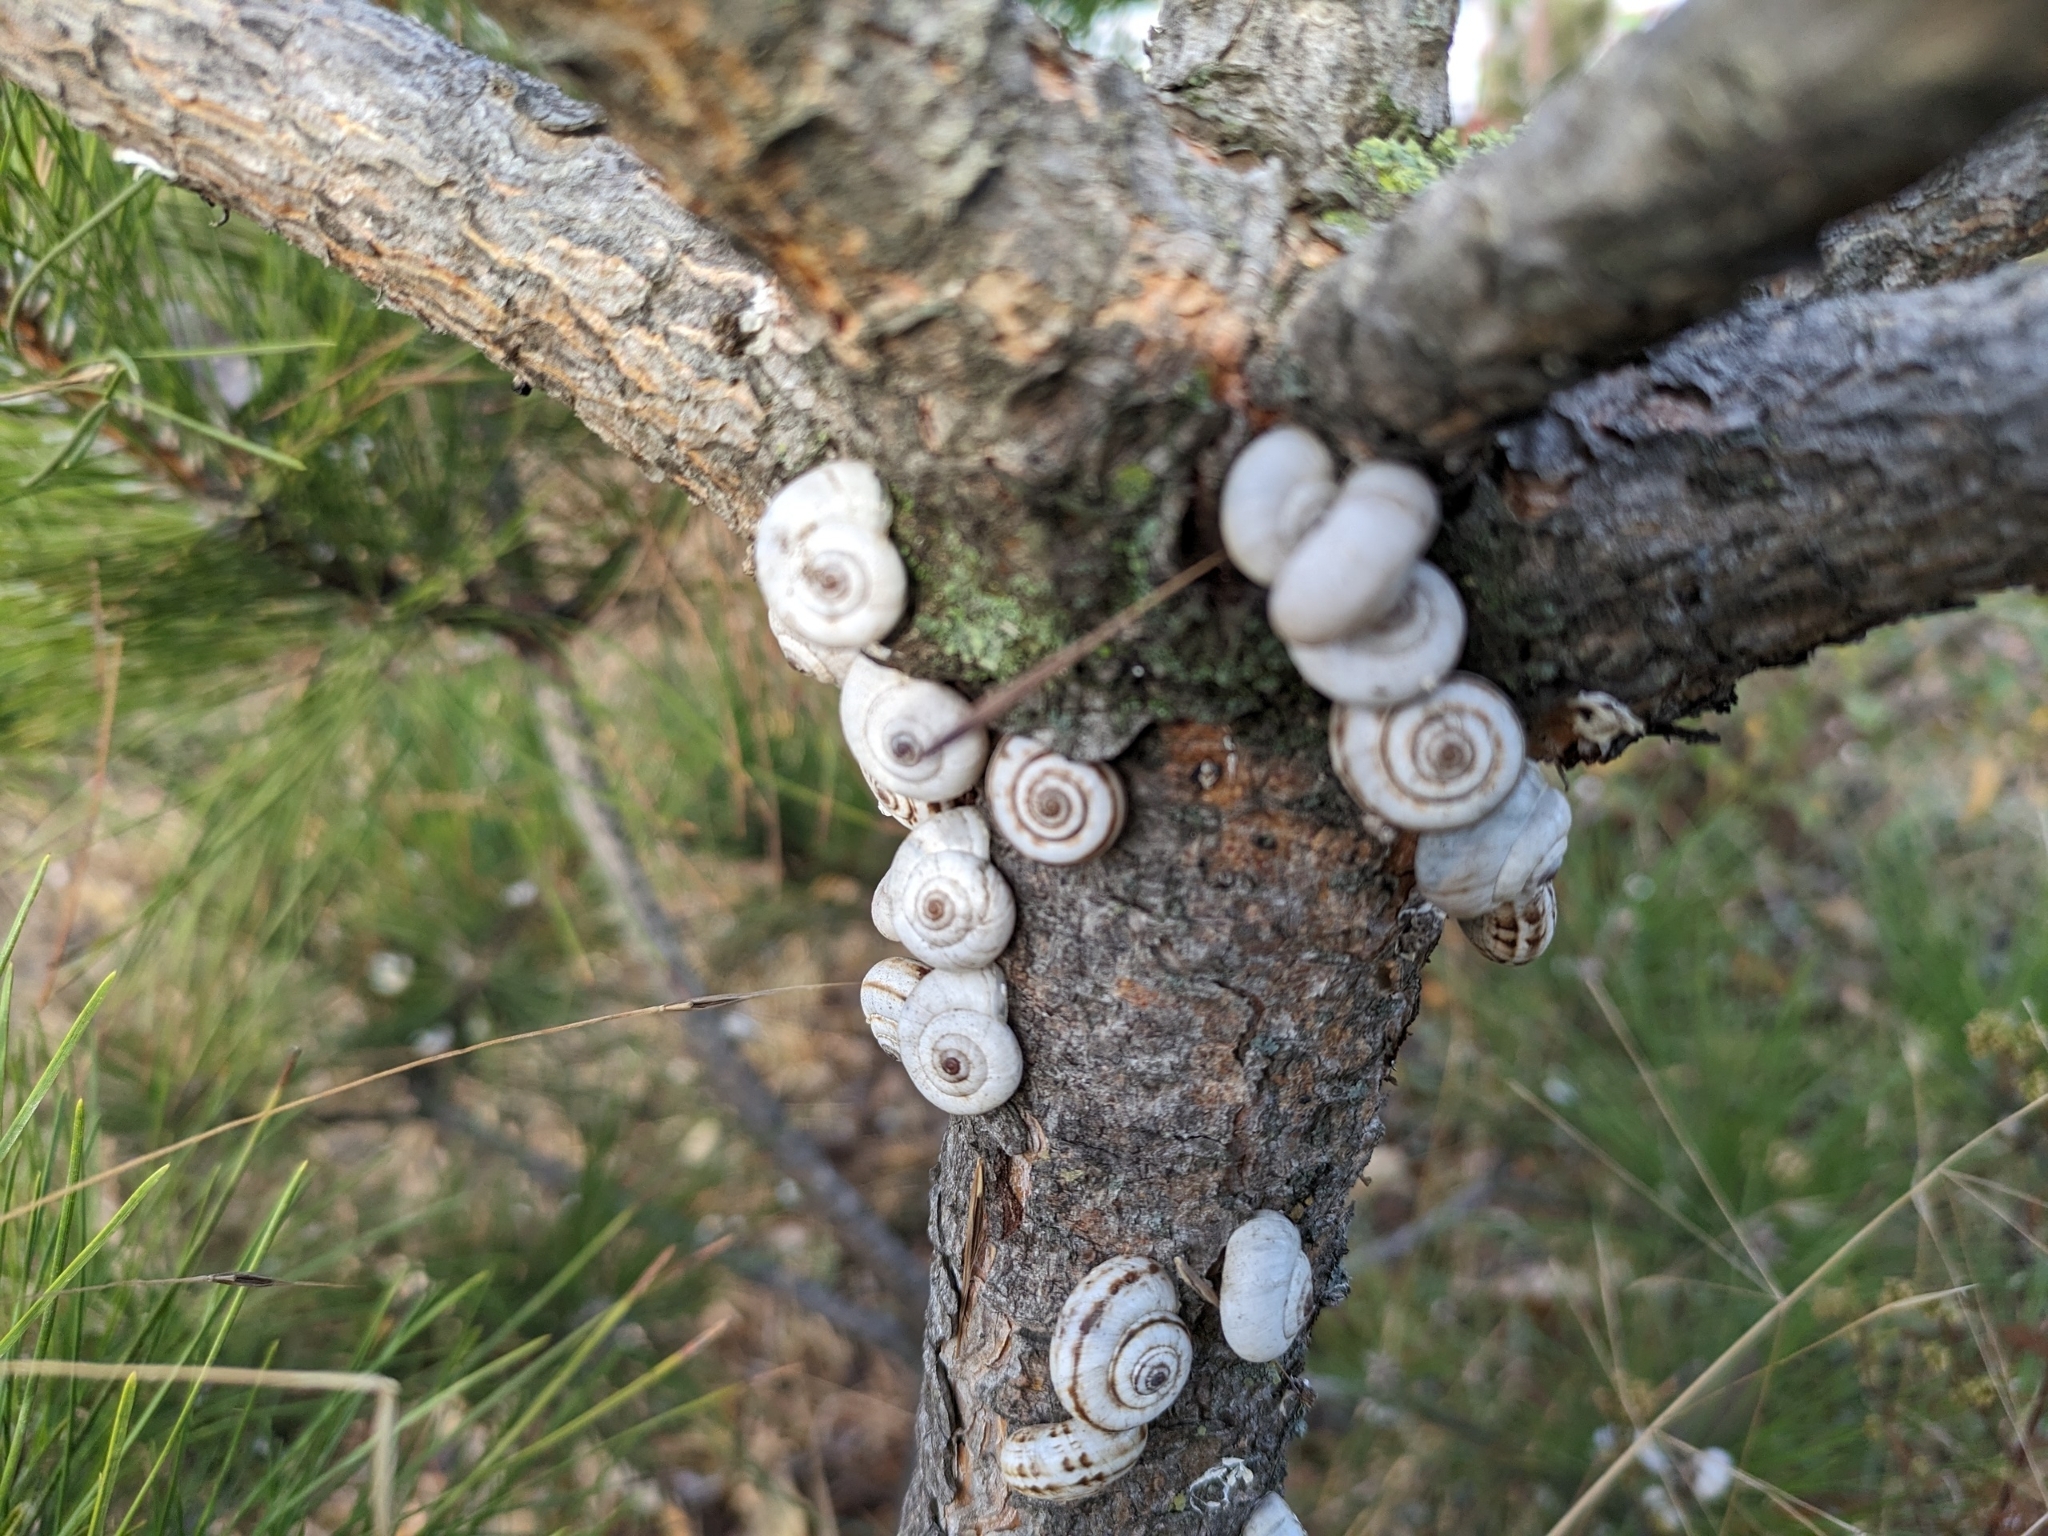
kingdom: Animalia
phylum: Mollusca
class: Gastropoda
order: Stylommatophora
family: Geomitridae
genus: Xeropicta
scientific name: Xeropicta derbentina
